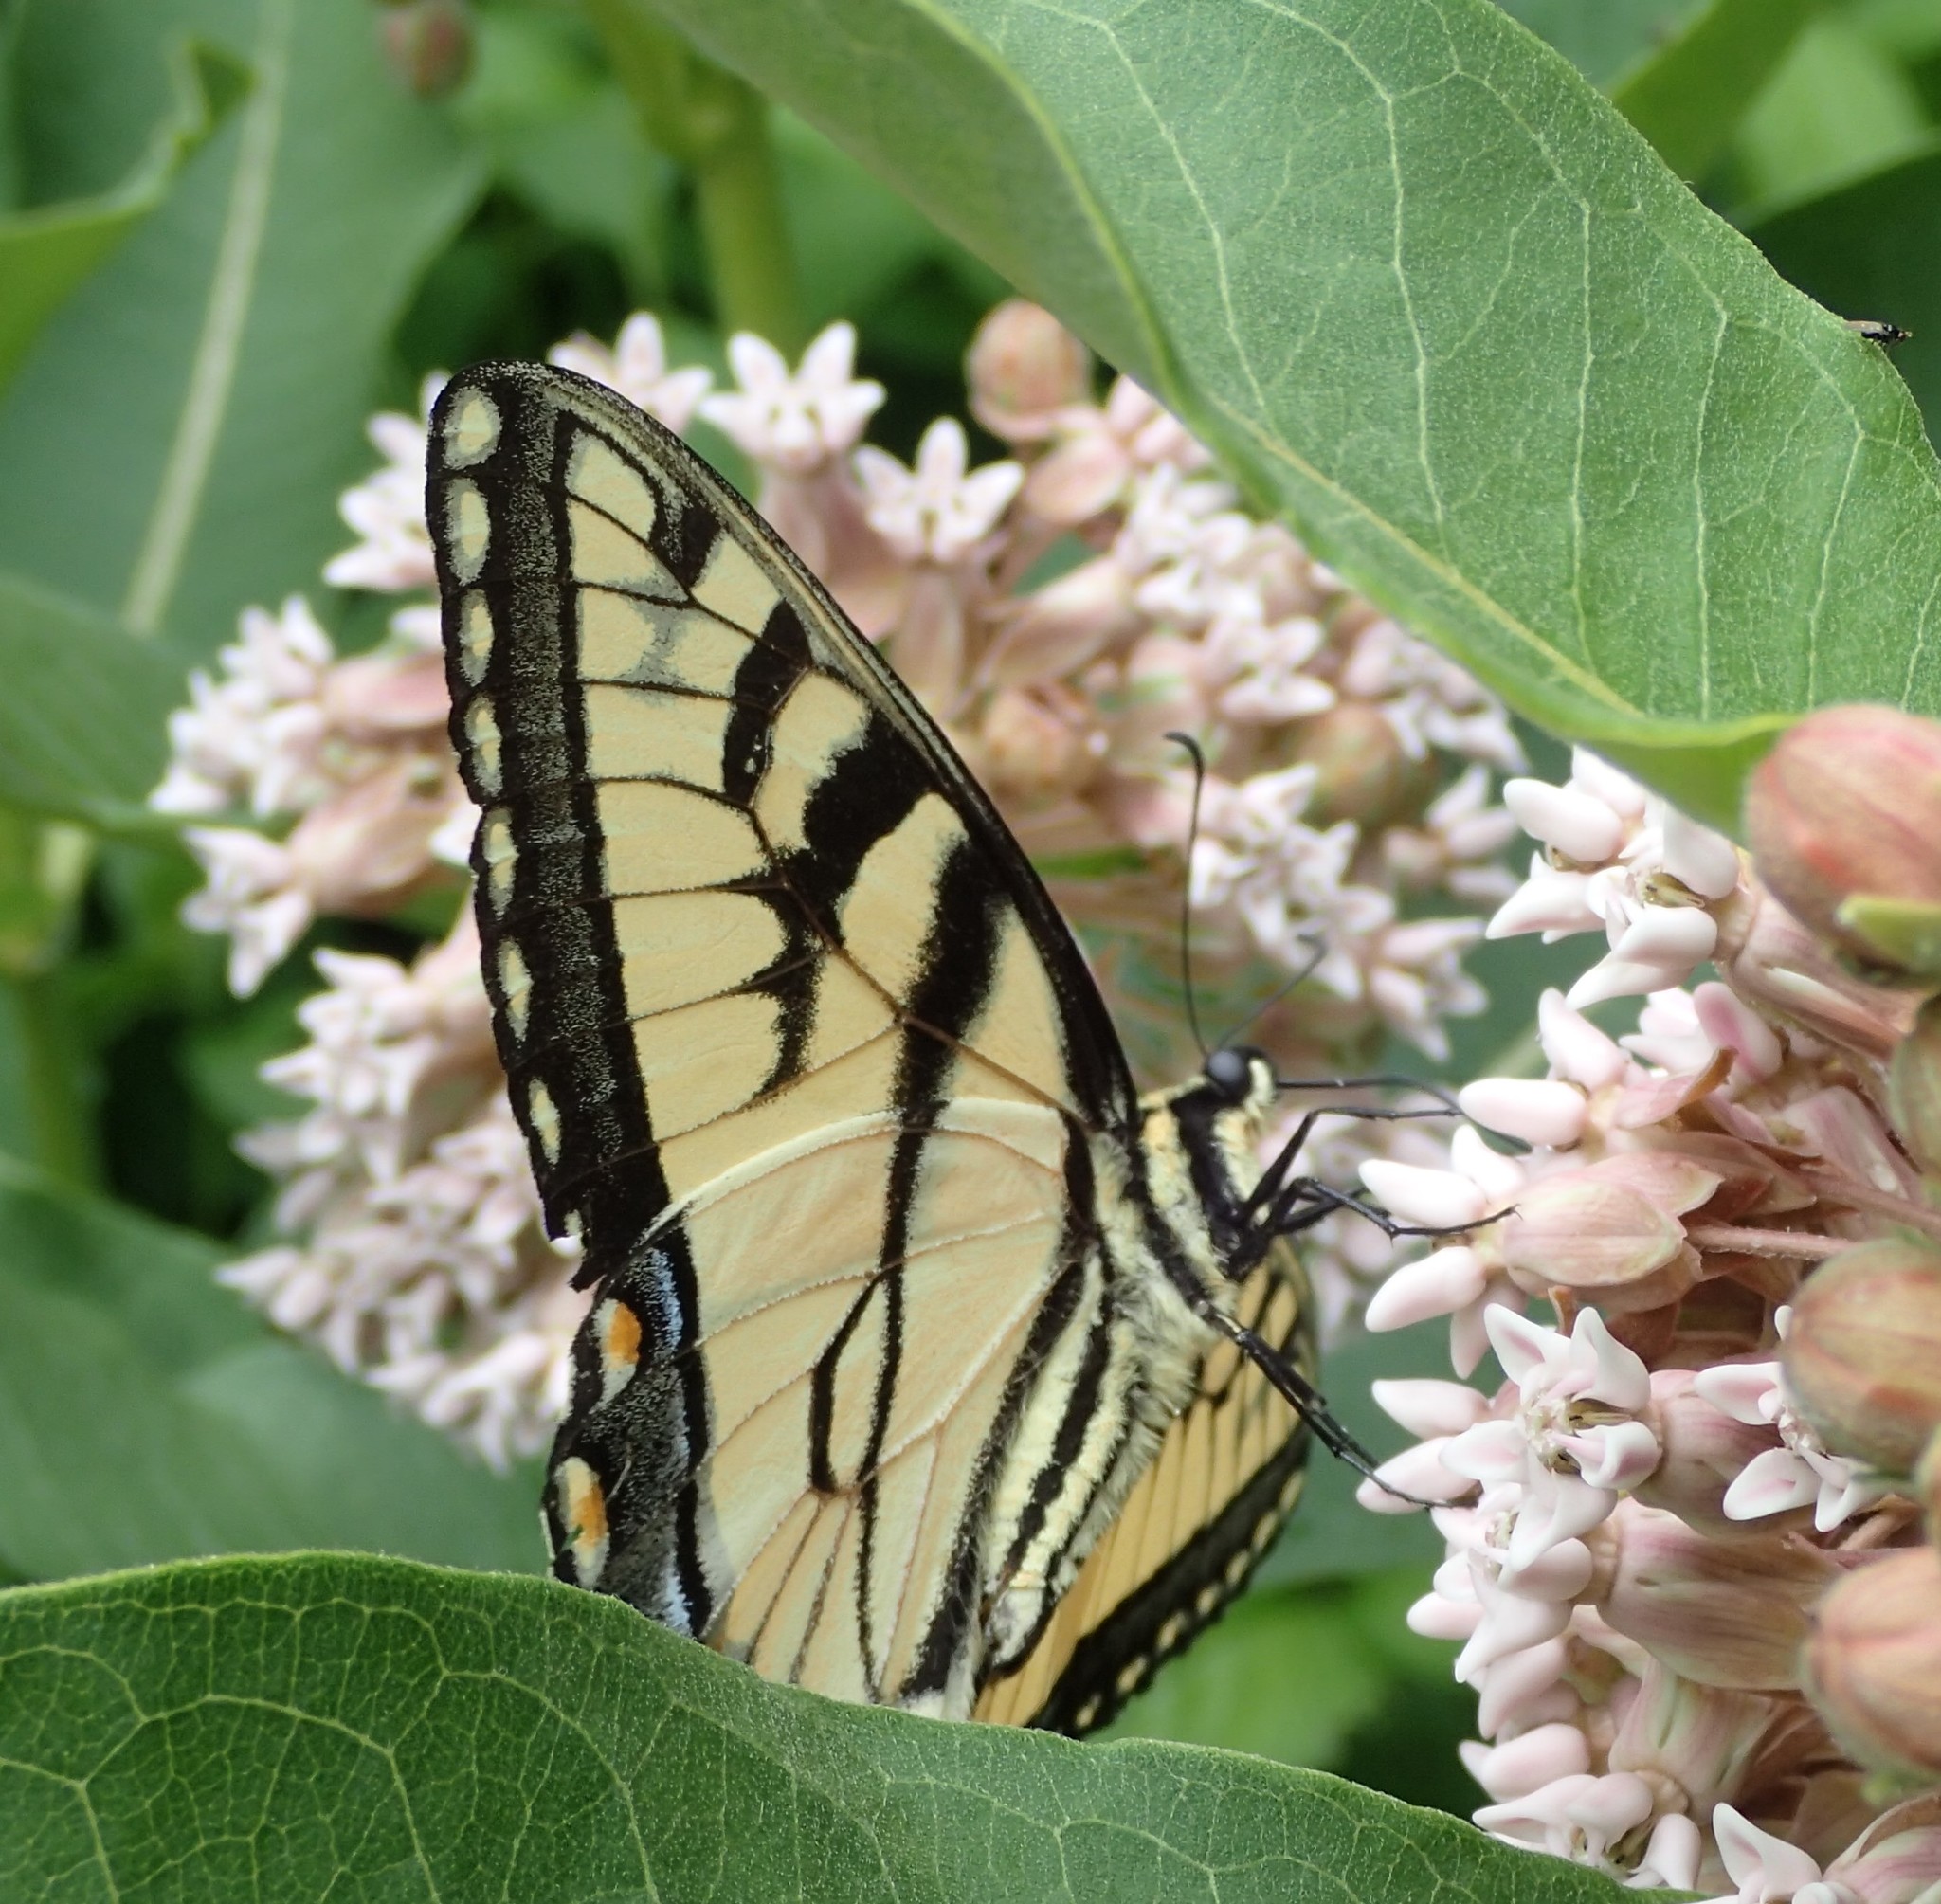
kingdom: Animalia
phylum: Arthropoda
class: Insecta
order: Lepidoptera
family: Papilionidae
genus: Papilio
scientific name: Papilio glaucus
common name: Tiger swallowtail
